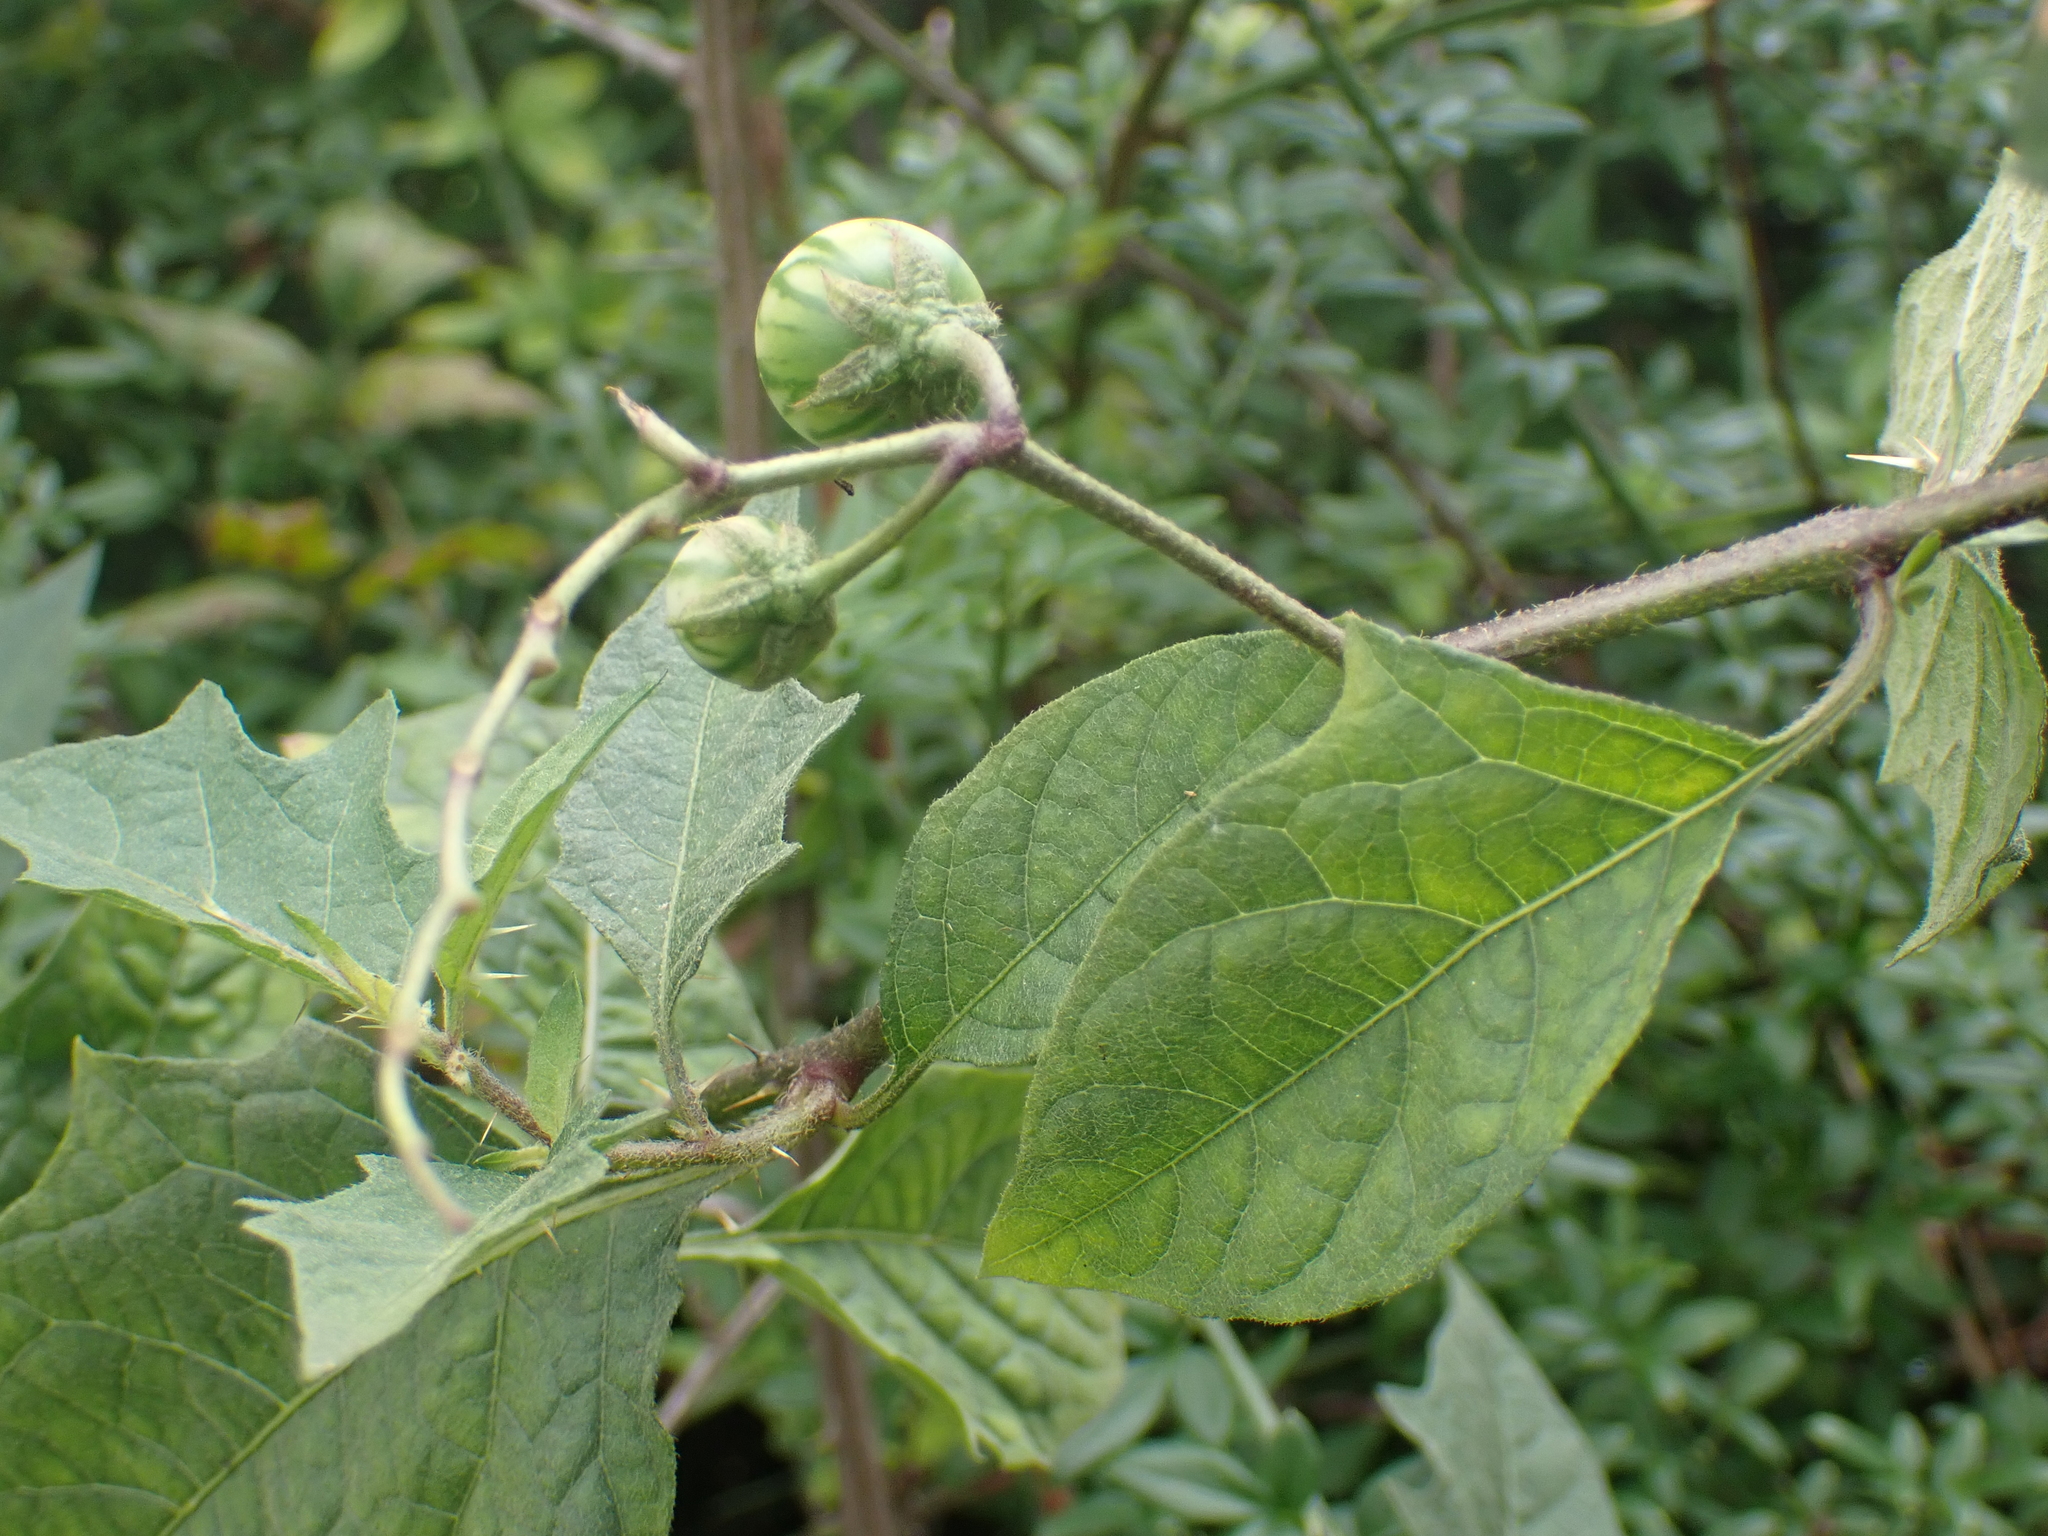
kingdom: Plantae
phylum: Tracheophyta
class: Magnoliopsida
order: Solanales
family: Solanaceae
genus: Solanum
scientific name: Solanum carolinense
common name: Horse-nettle
